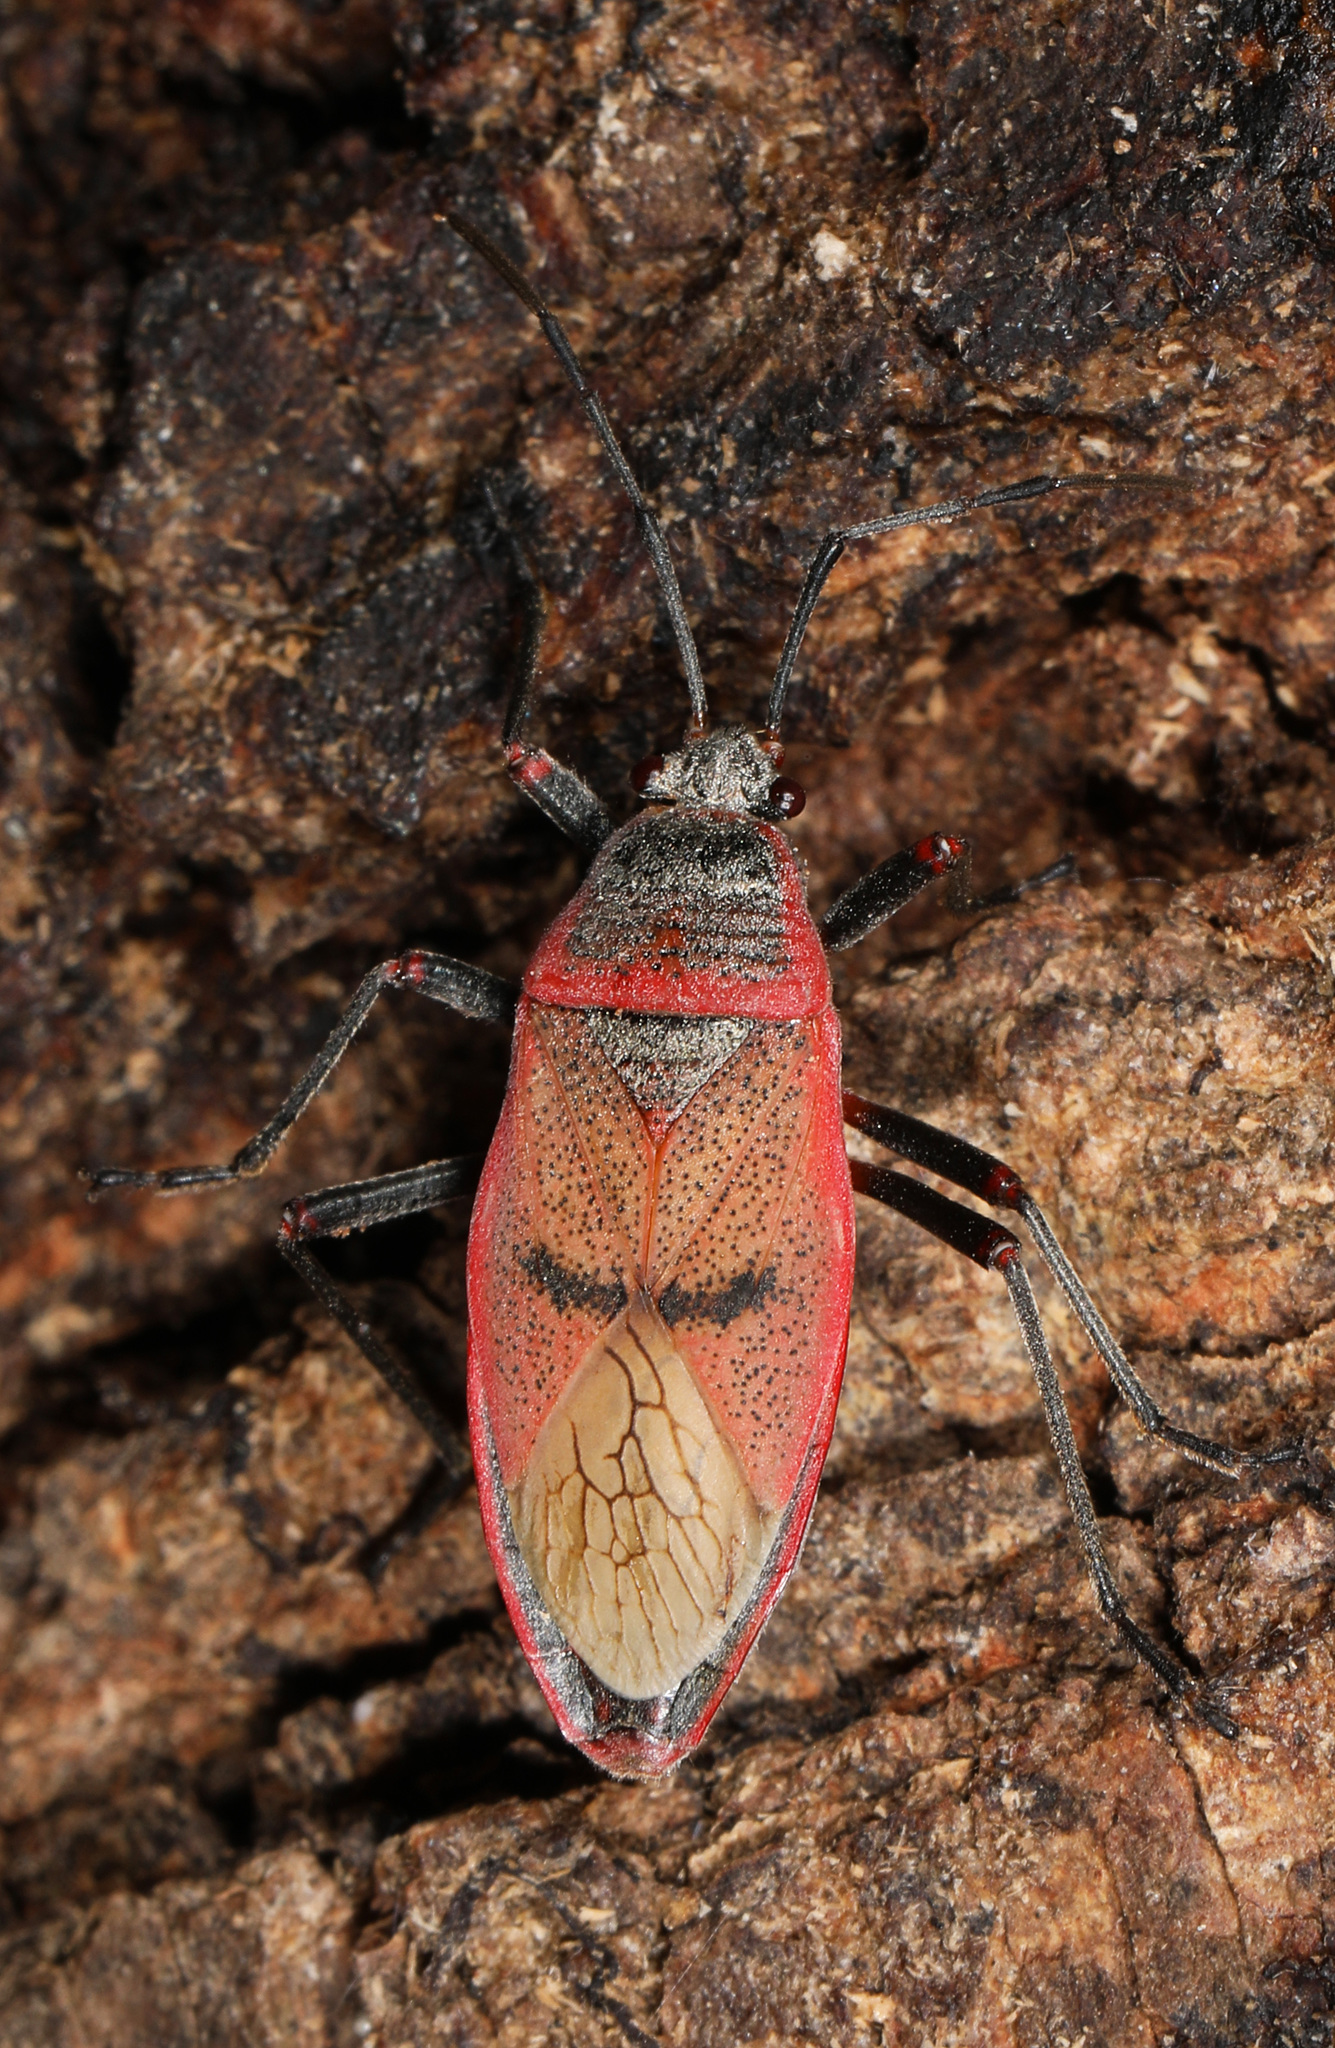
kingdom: Animalia
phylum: Arthropoda
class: Insecta
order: Hemiptera
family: Largidae
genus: Largus
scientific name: Largus maculatus
